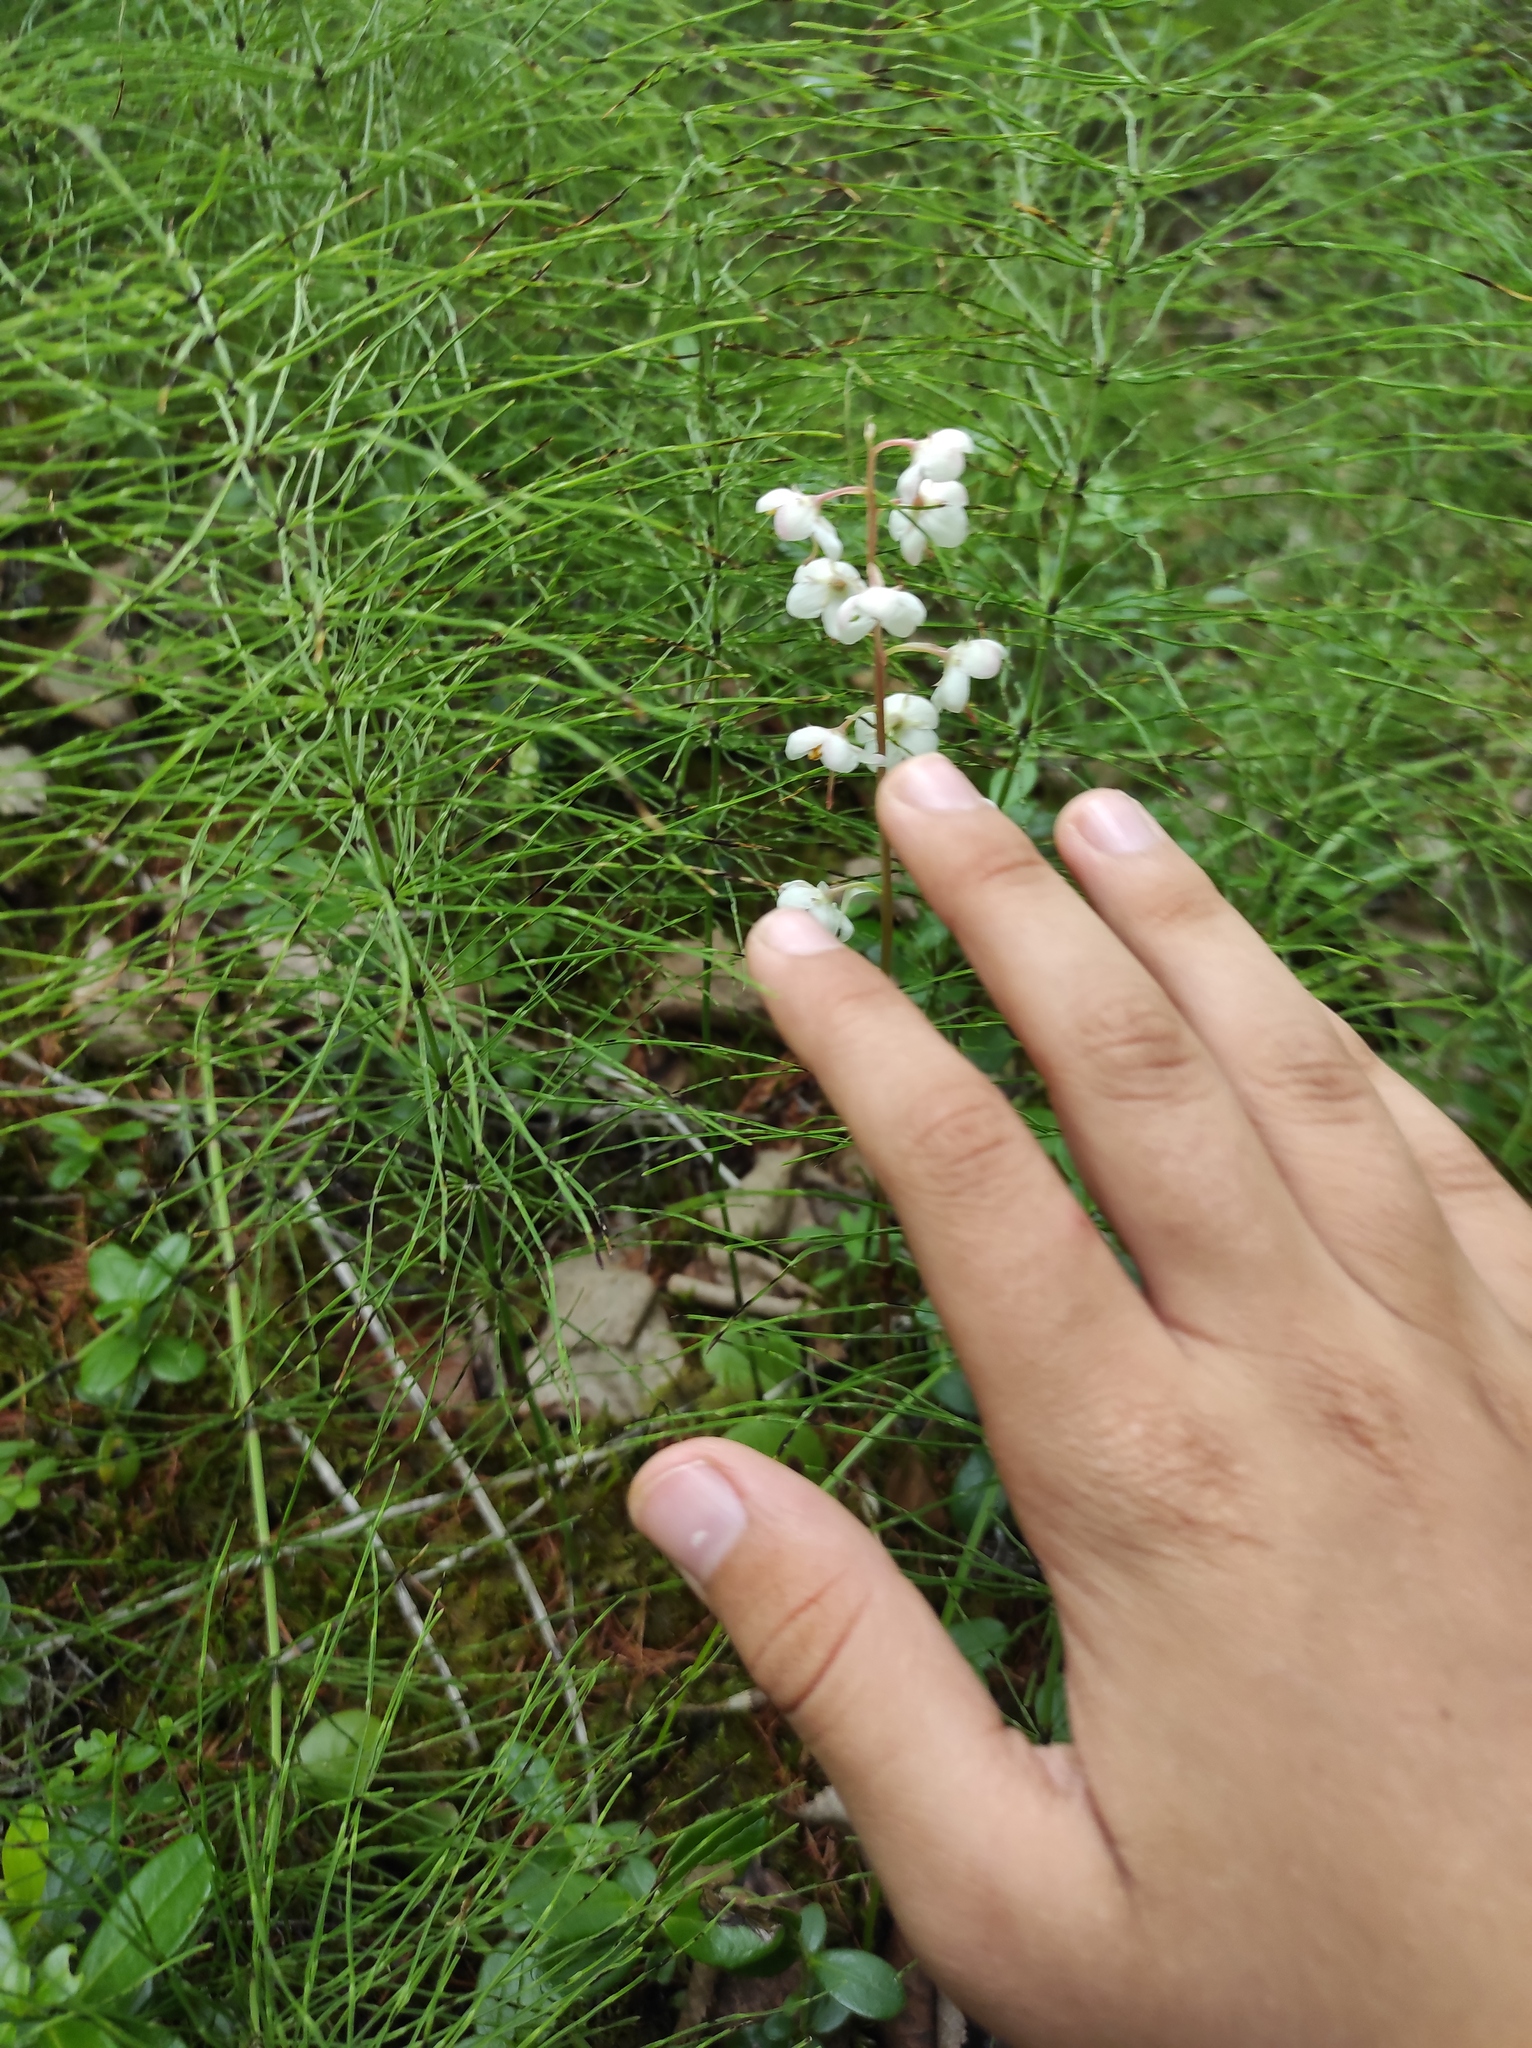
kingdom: Plantae
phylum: Tracheophyta
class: Polypodiopsida
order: Equisetales
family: Equisetaceae
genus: Equisetum
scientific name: Equisetum pratense
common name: Meadow horsetail
